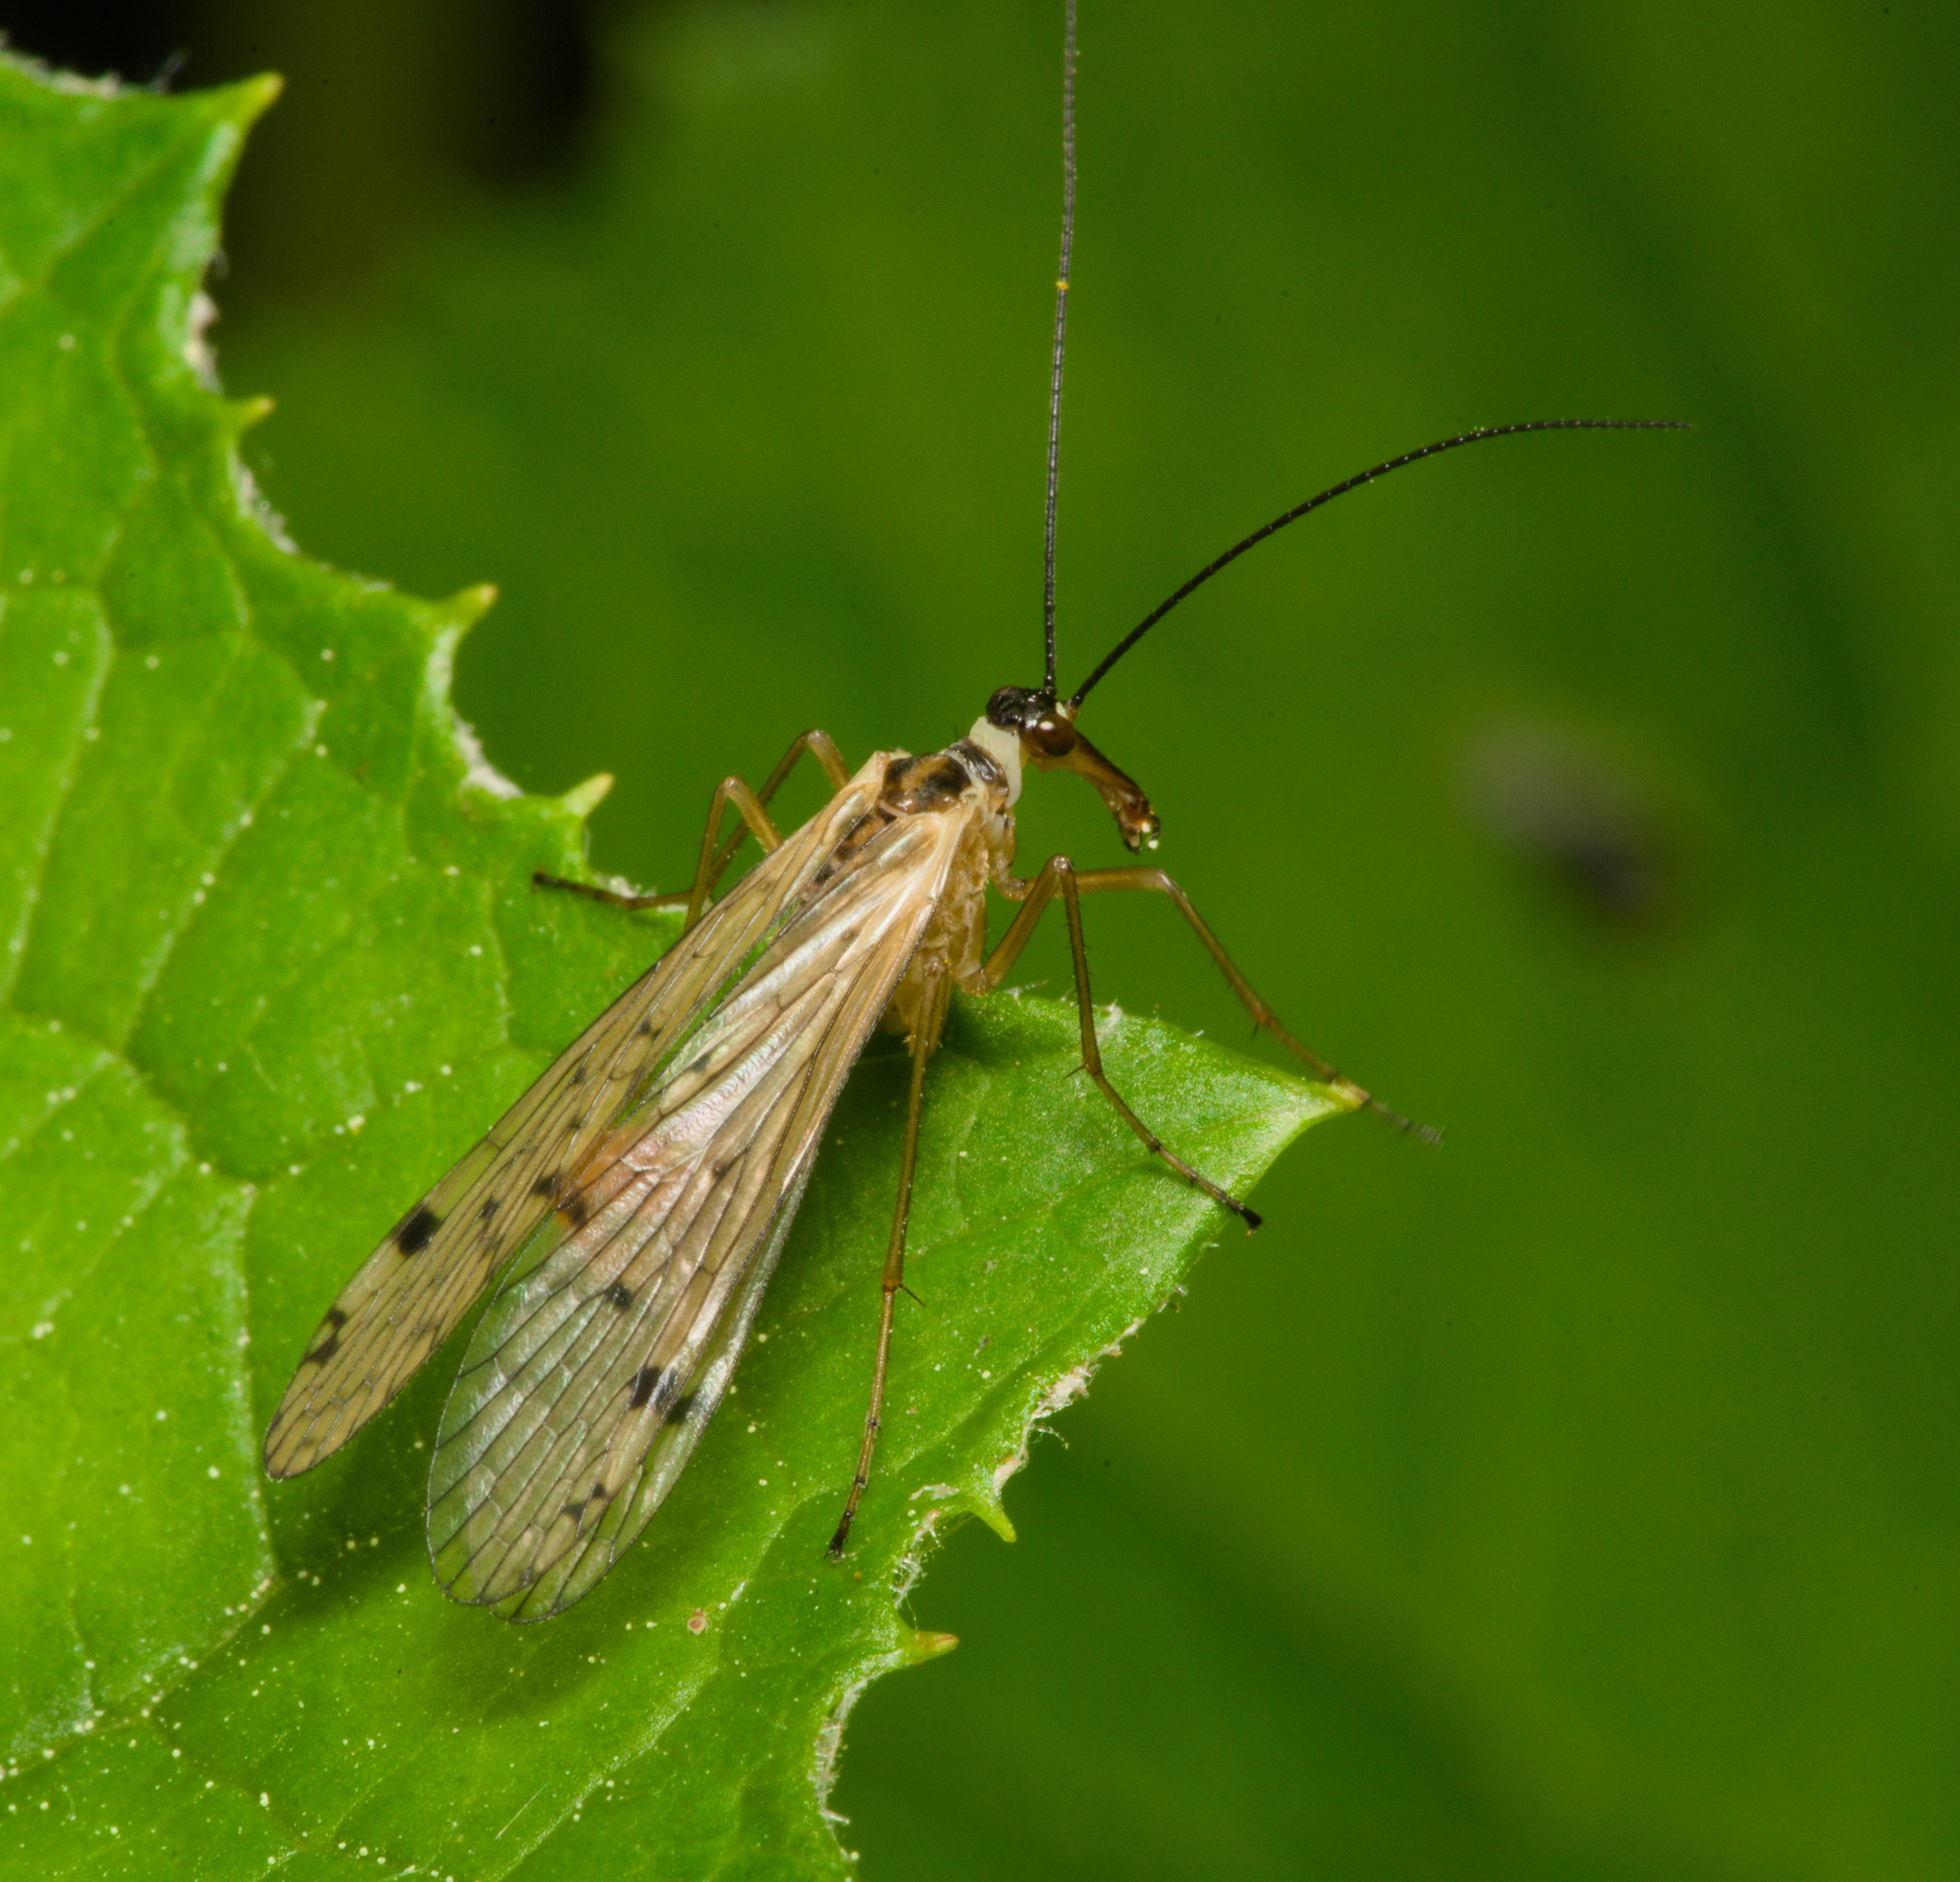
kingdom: Animalia
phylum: Arthropoda
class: Insecta
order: Mecoptera
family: Panorpidae
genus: Panorpa
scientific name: Panorpa alpina
